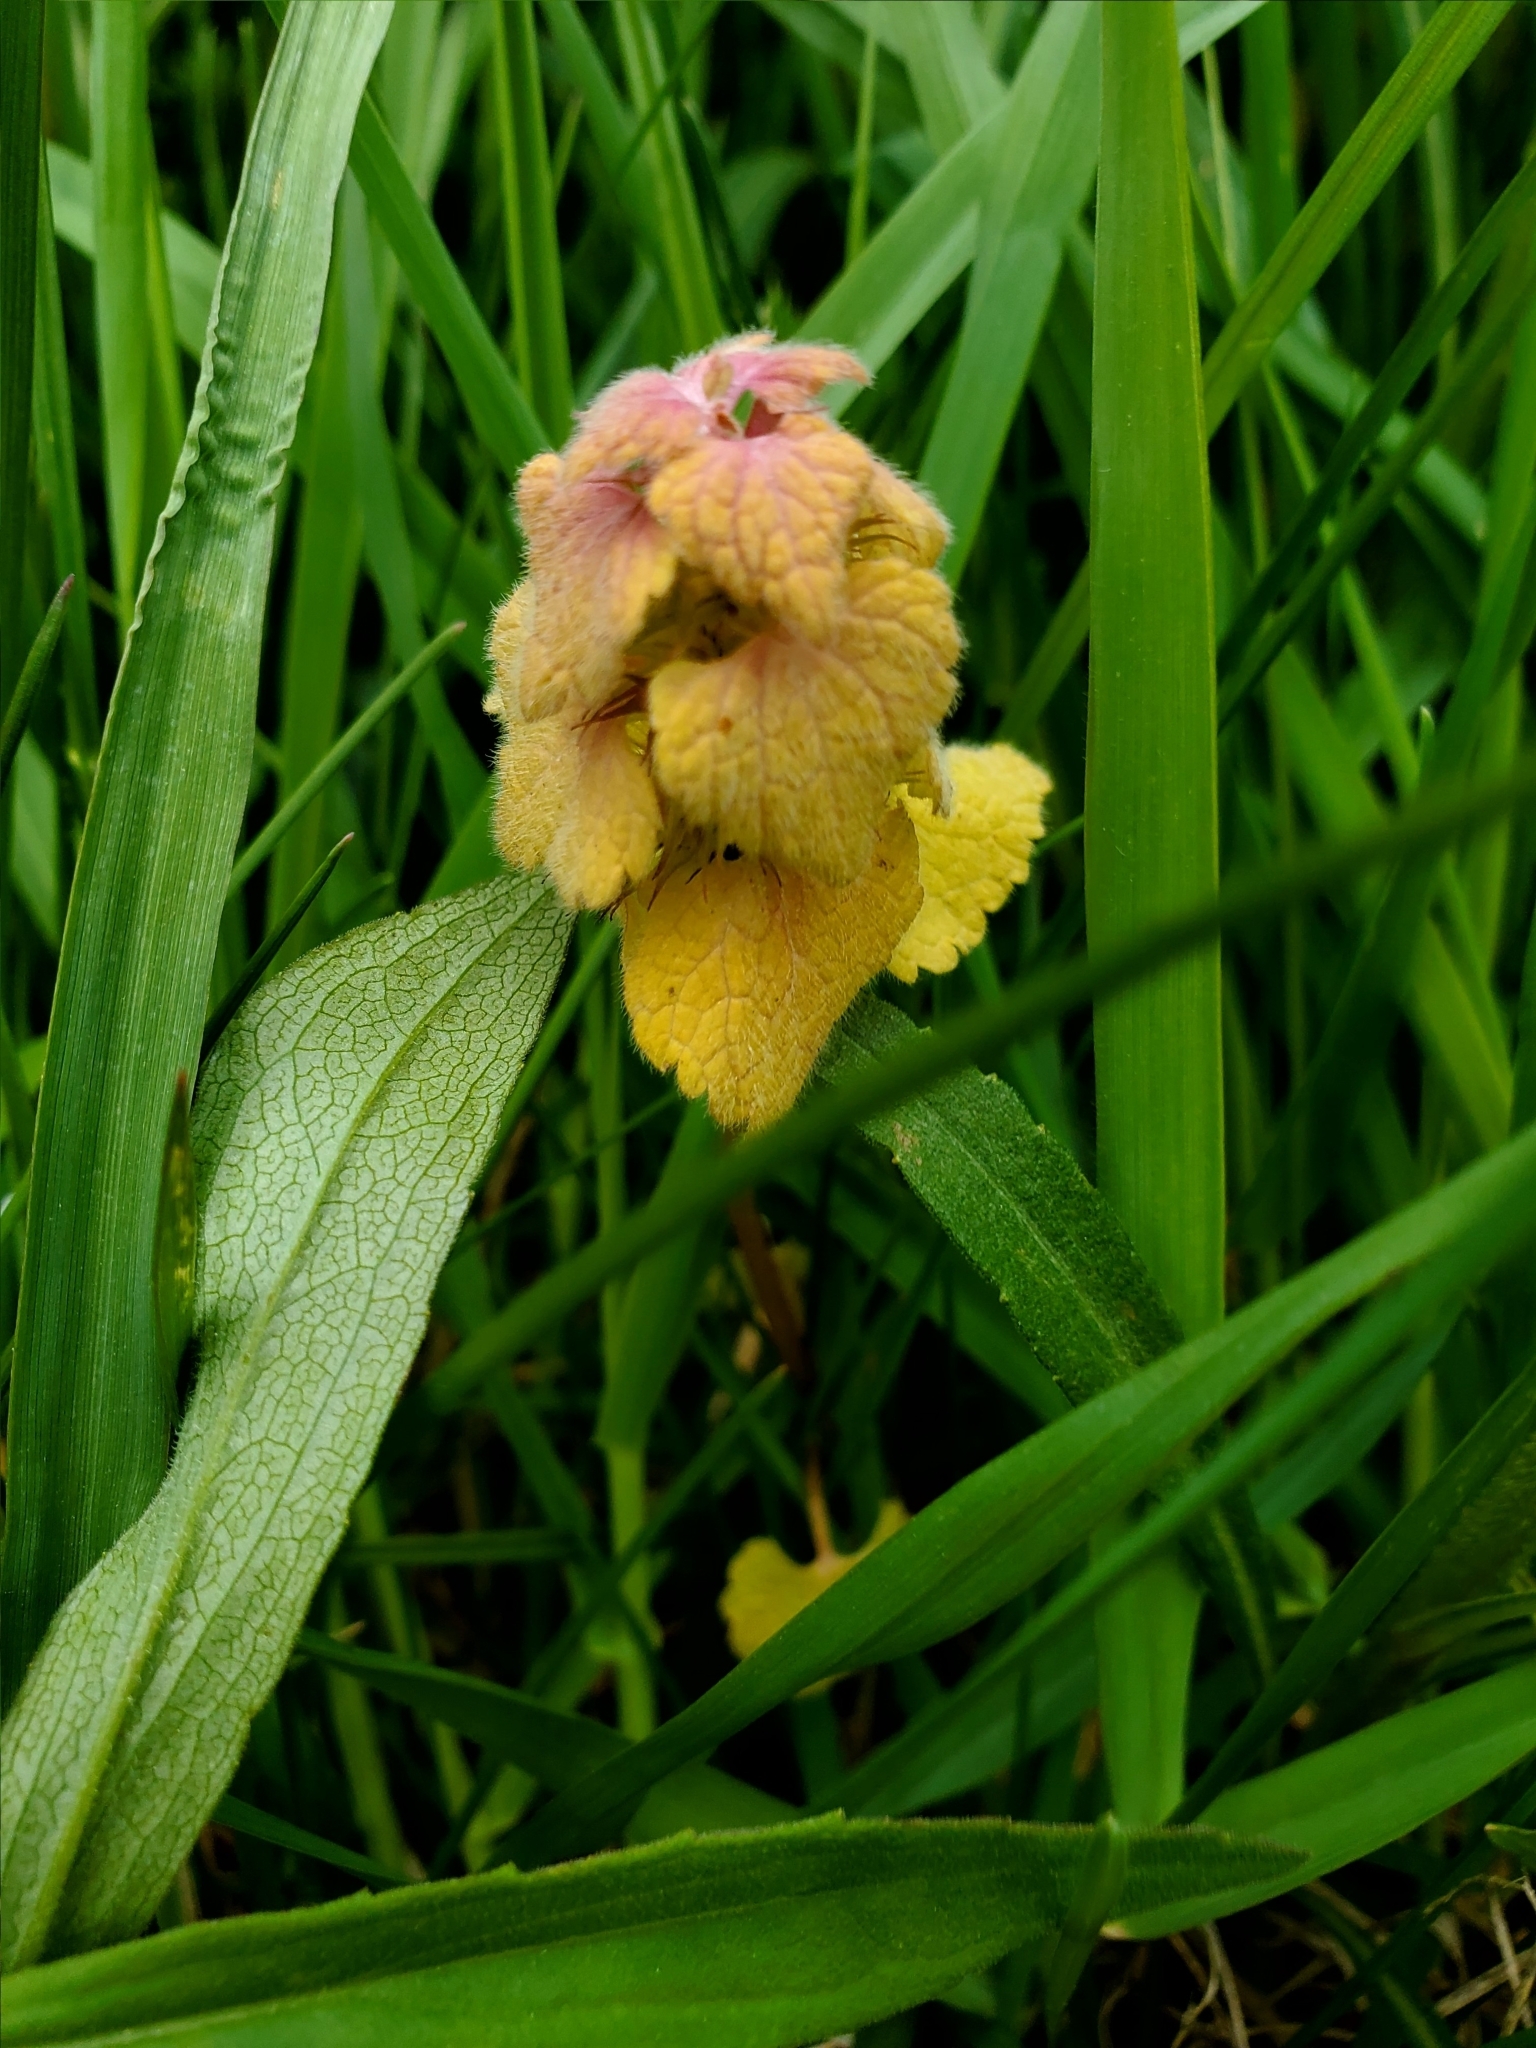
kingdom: Plantae
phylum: Tracheophyta
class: Magnoliopsida
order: Lamiales
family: Lamiaceae
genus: Lamium
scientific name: Lamium purpureum
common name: Red dead-nettle
